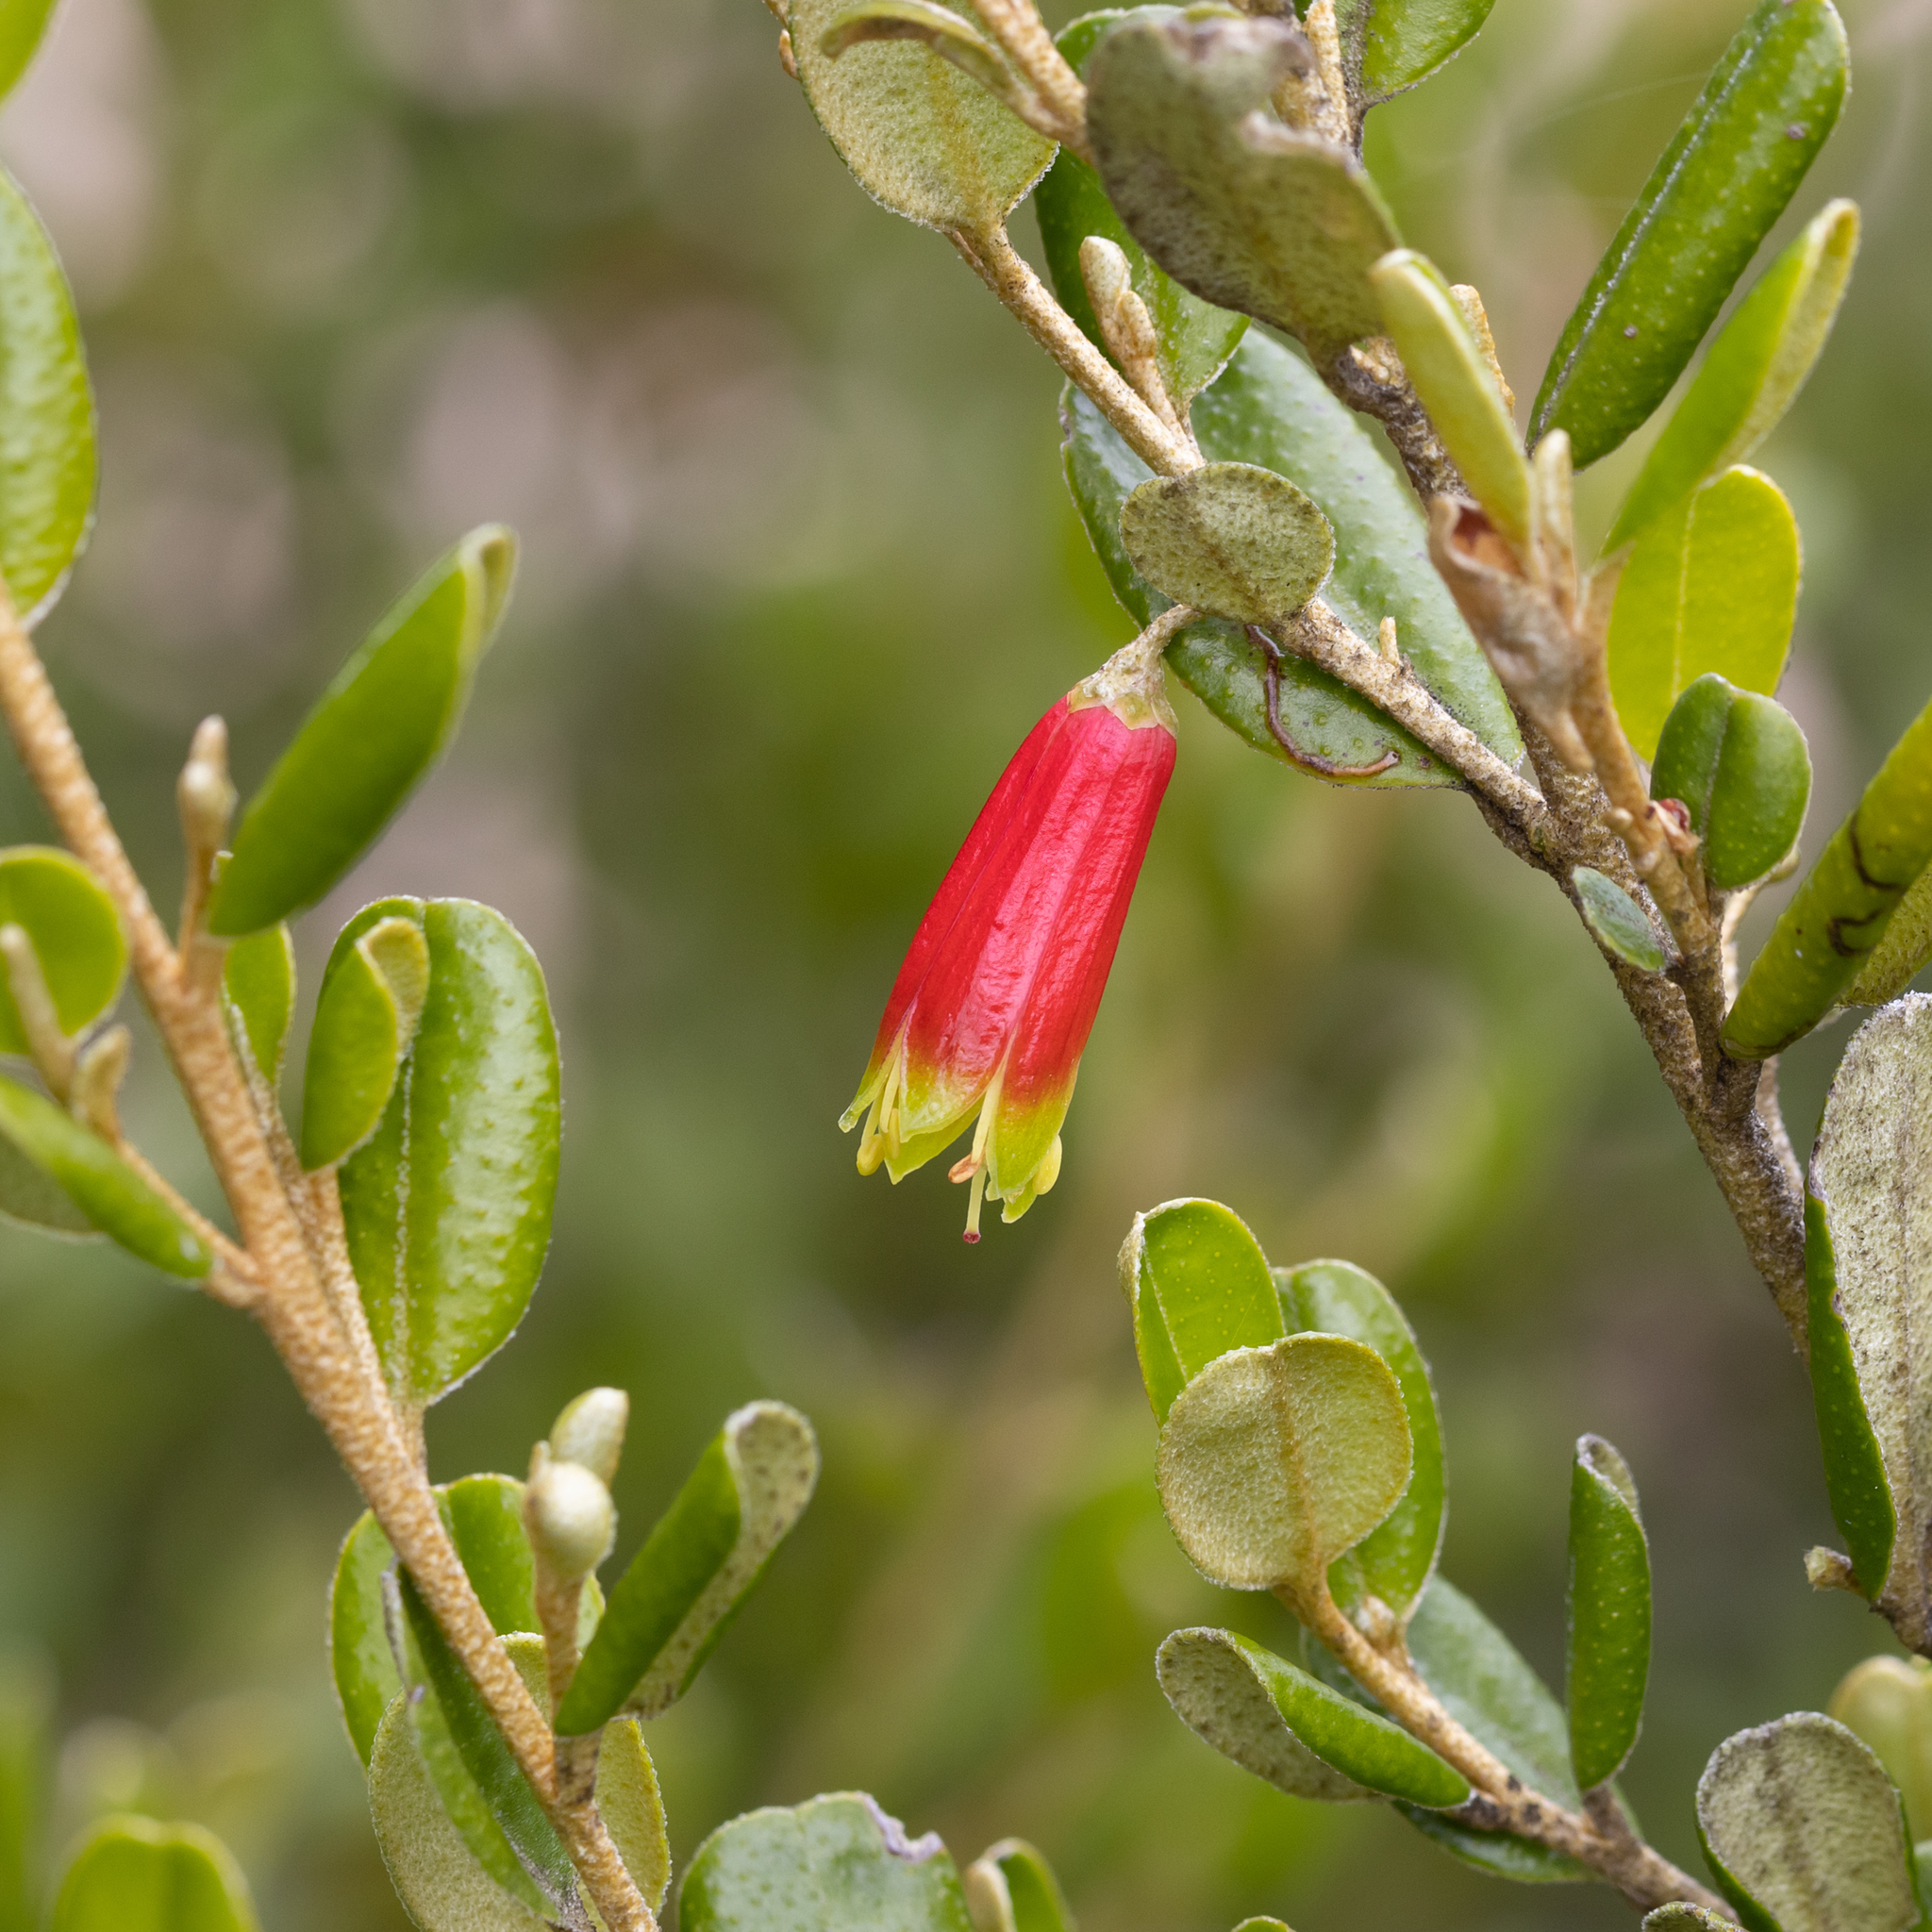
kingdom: Plantae
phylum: Tracheophyta
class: Magnoliopsida
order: Sapindales
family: Rutaceae
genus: Nematolepis
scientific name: Nematolepis phebalioides
